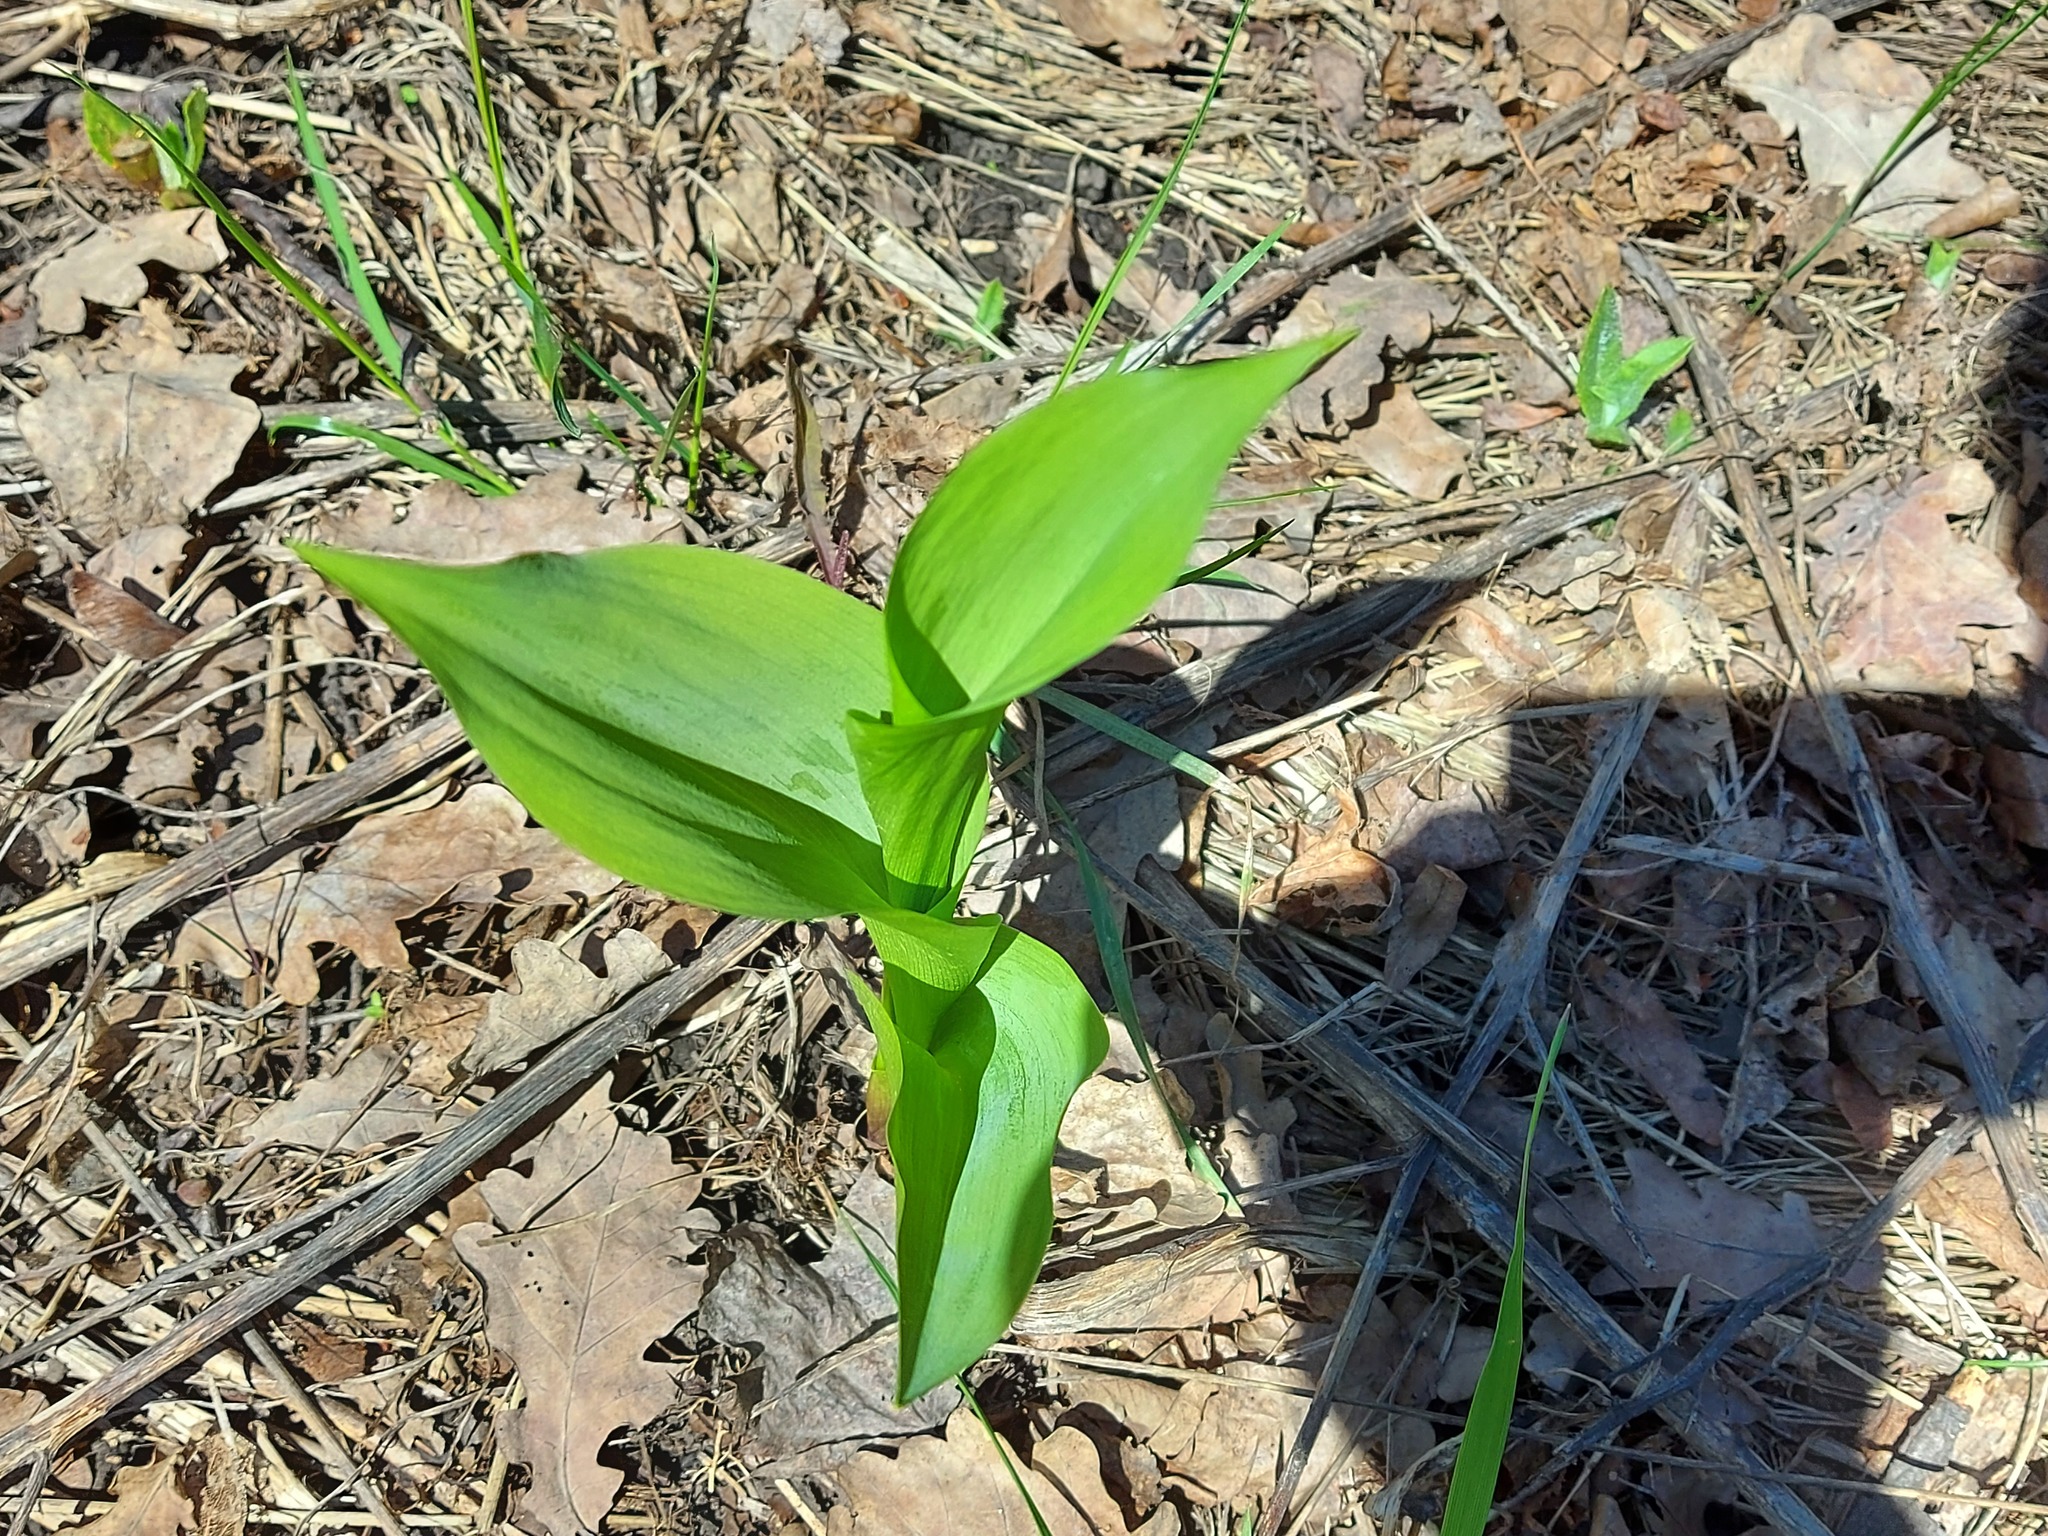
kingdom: Plantae
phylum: Tracheophyta
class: Liliopsida
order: Asparagales
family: Asparagaceae
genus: Convallaria
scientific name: Convallaria majalis
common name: Lily-of-the-valley
